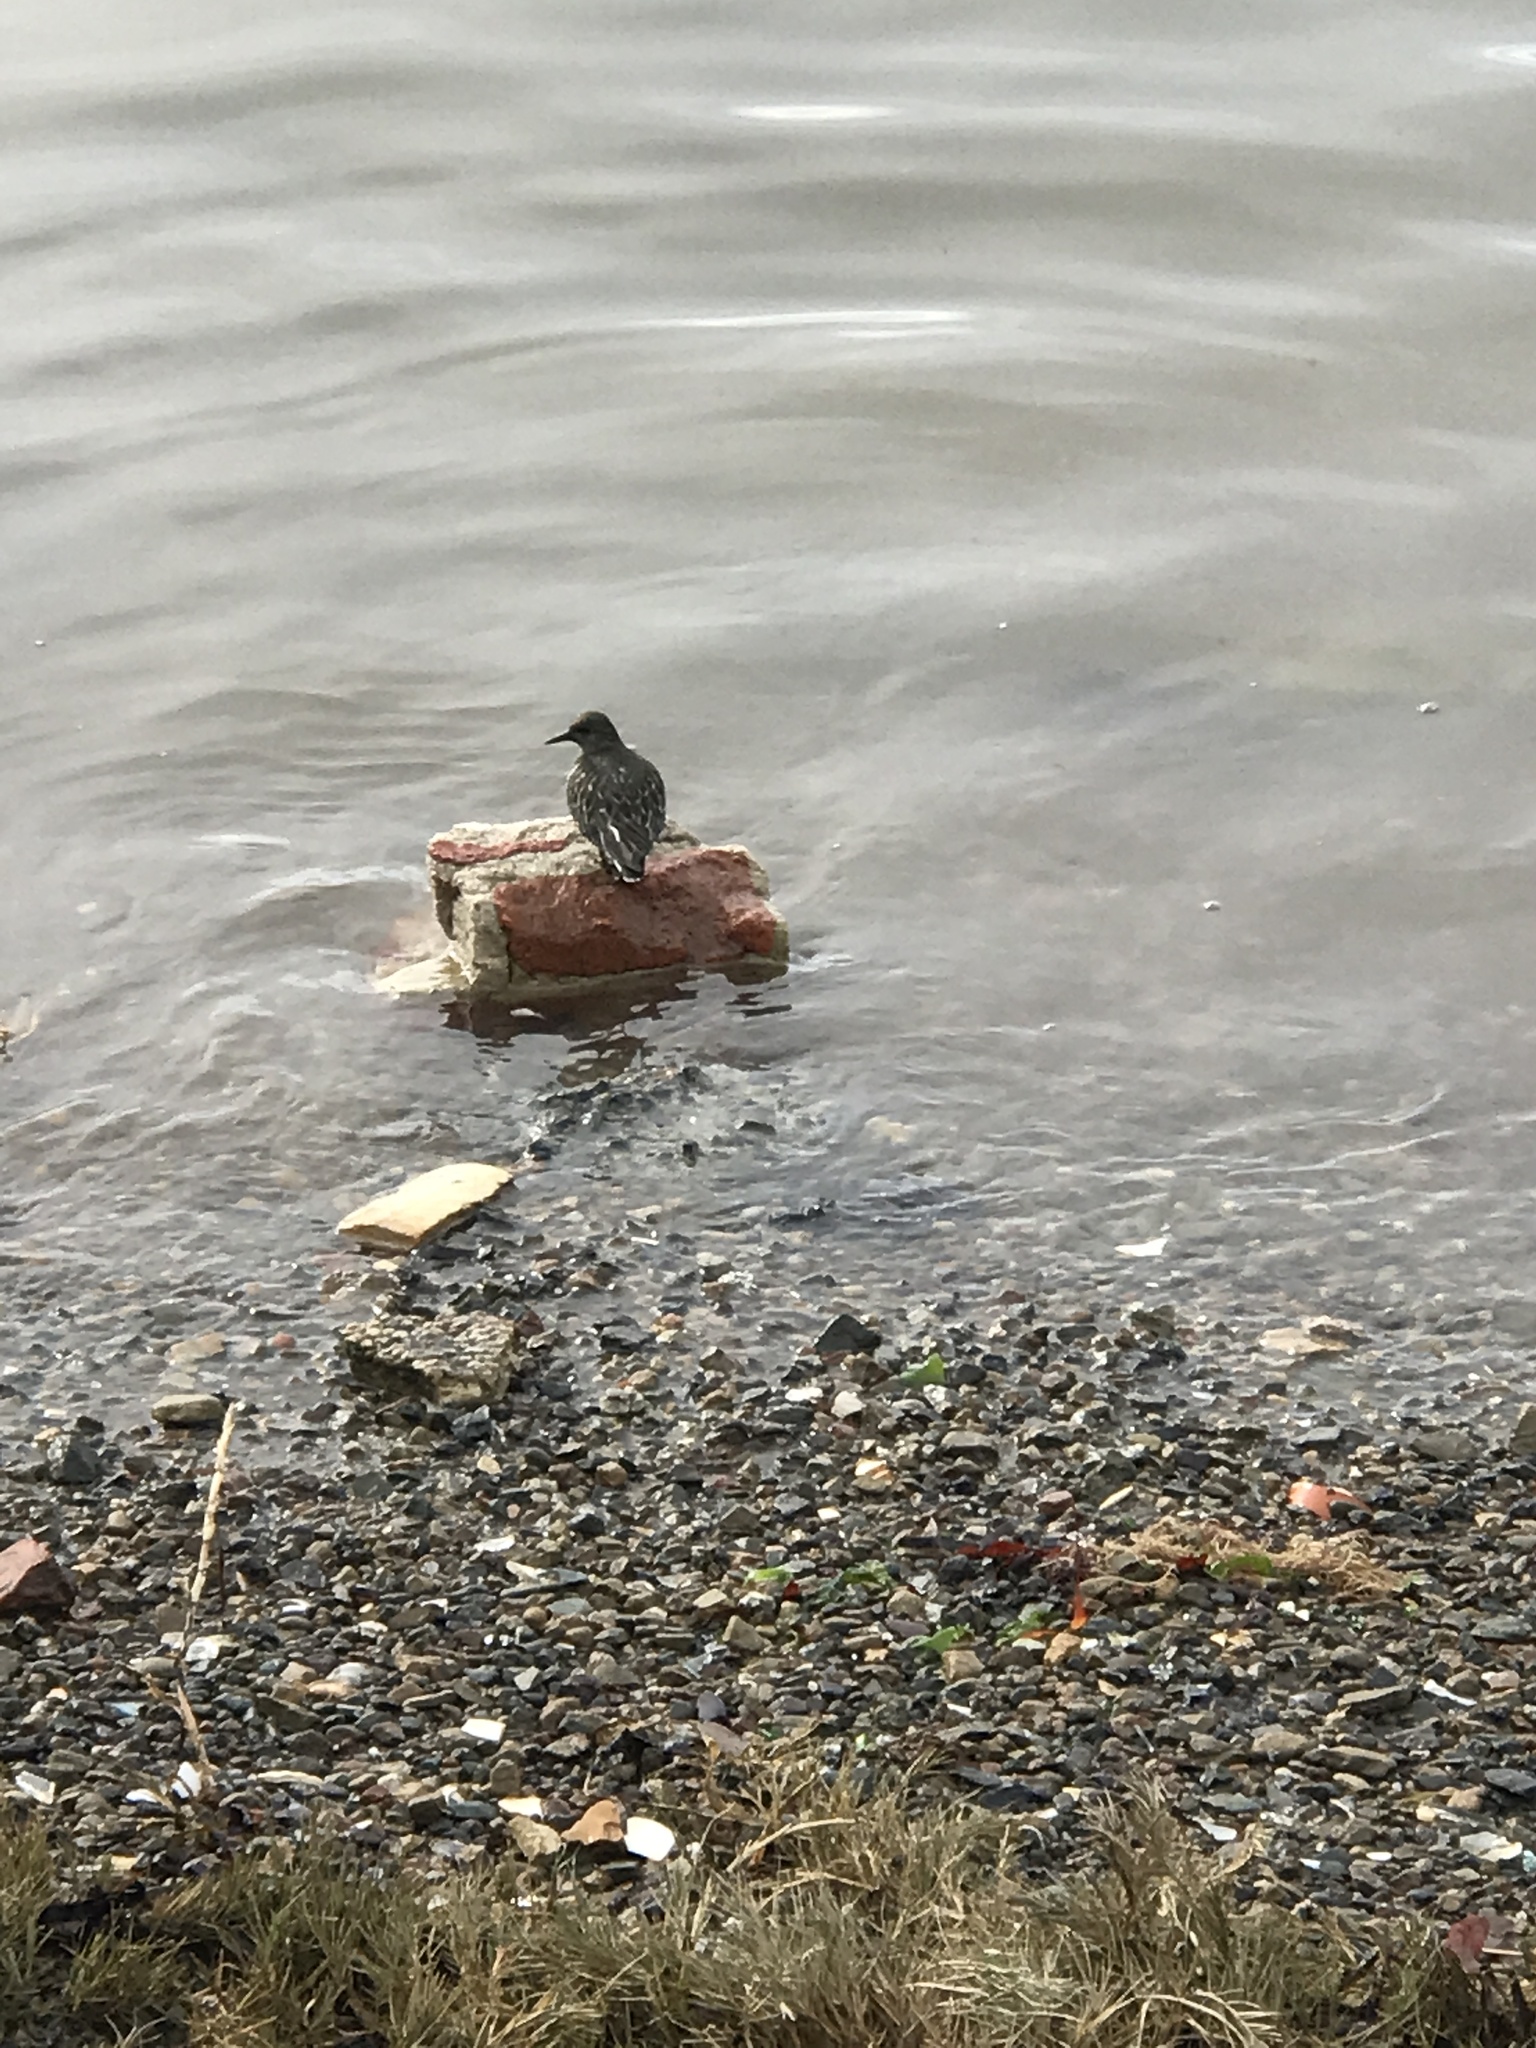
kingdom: Animalia
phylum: Chordata
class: Aves
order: Charadriiformes
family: Scolopacidae
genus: Arenaria
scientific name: Arenaria melanocephala
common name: Black turnstone
